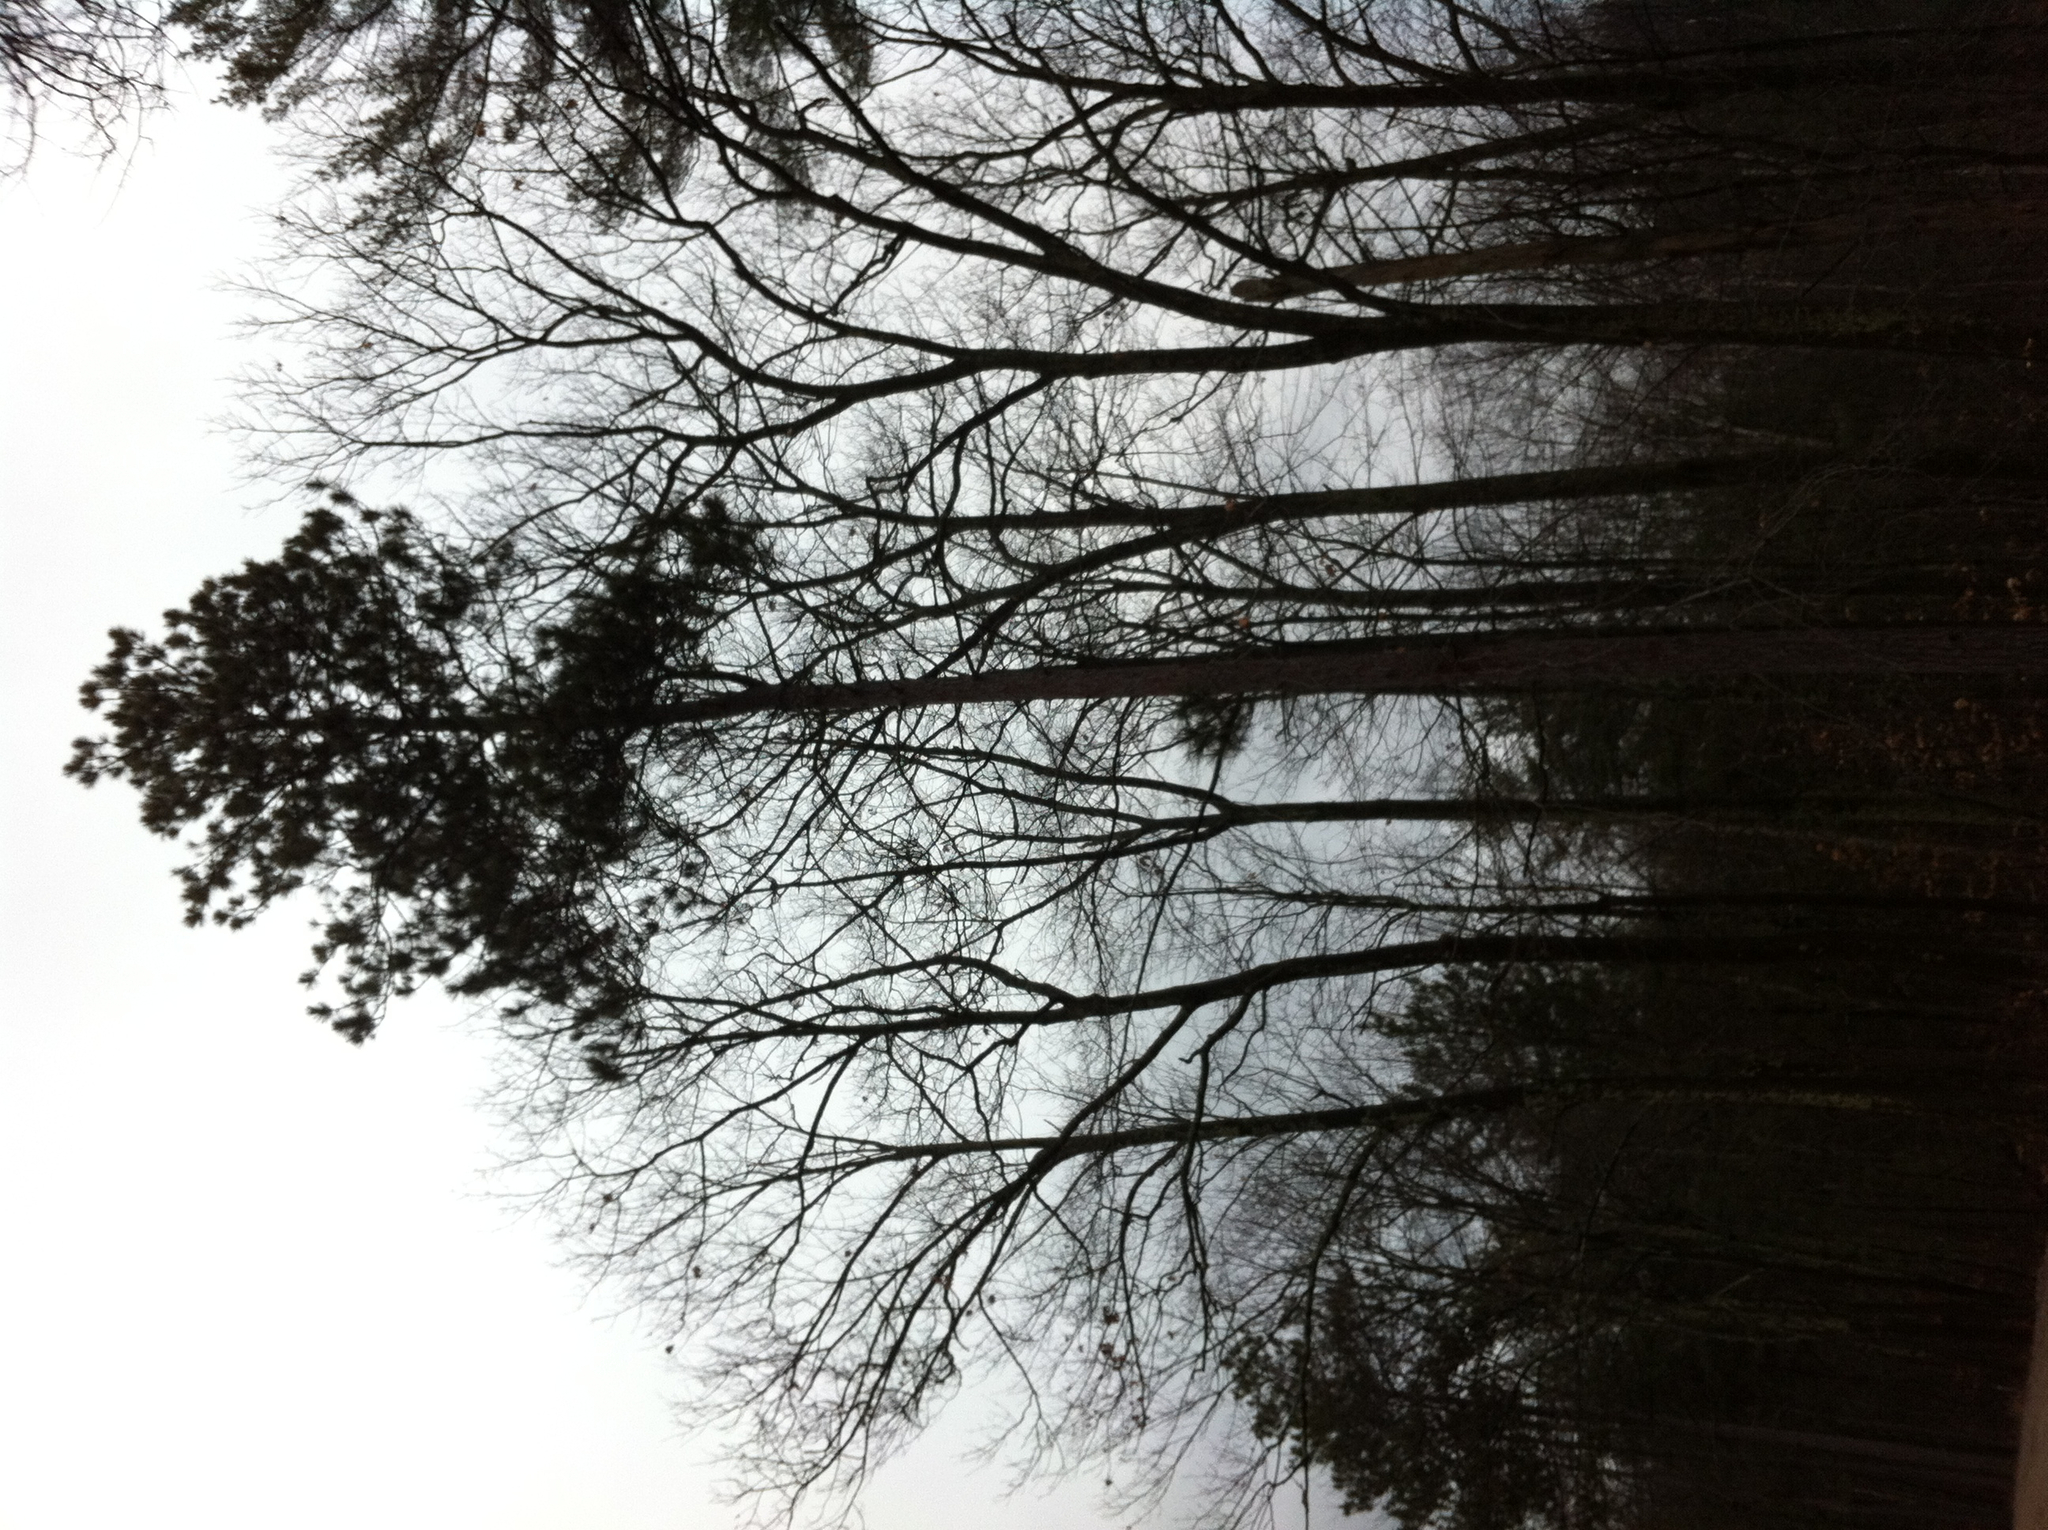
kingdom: Plantae
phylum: Tracheophyta
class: Pinopsida
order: Pinales
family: Pinaceae
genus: Pinus
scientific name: Pinus resinosa
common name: Norway pine
